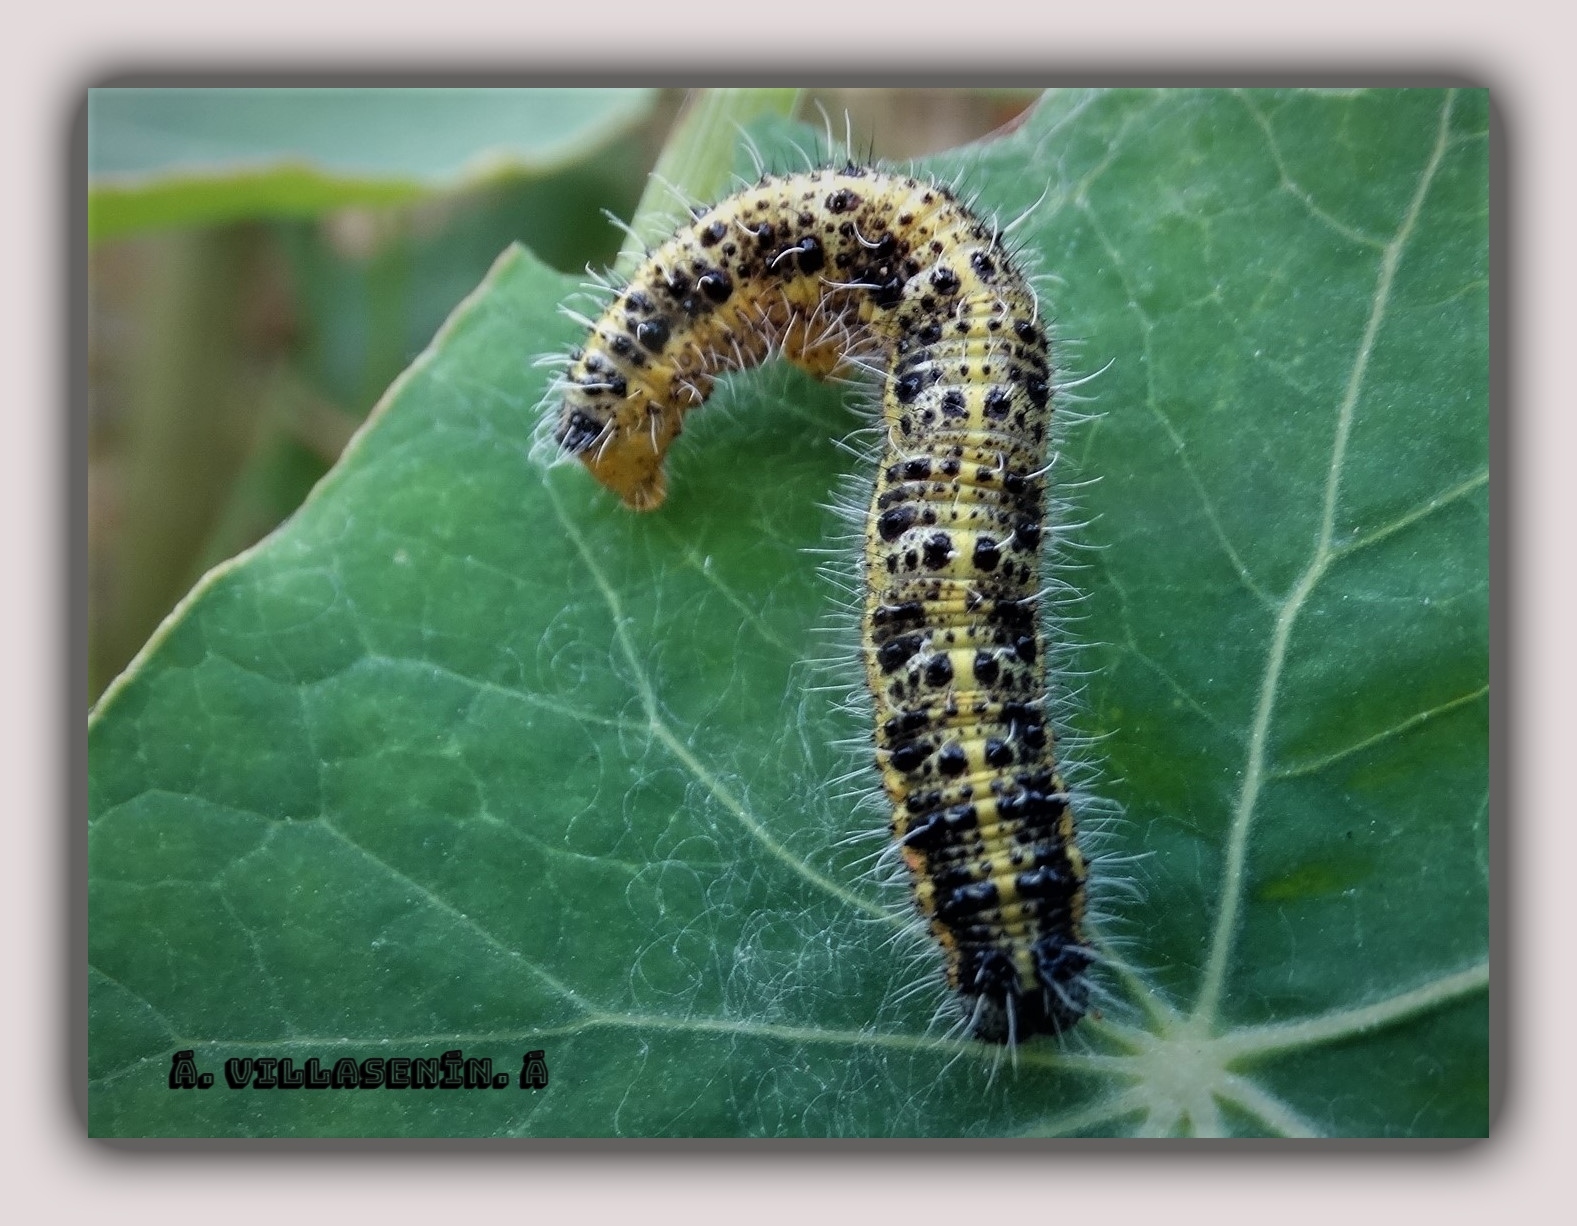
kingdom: Animalia
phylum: Arthropoda
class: Insecta
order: Lepidoptera
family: Pieridae
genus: Pieris
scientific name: Pieris brassicae
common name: Large white
